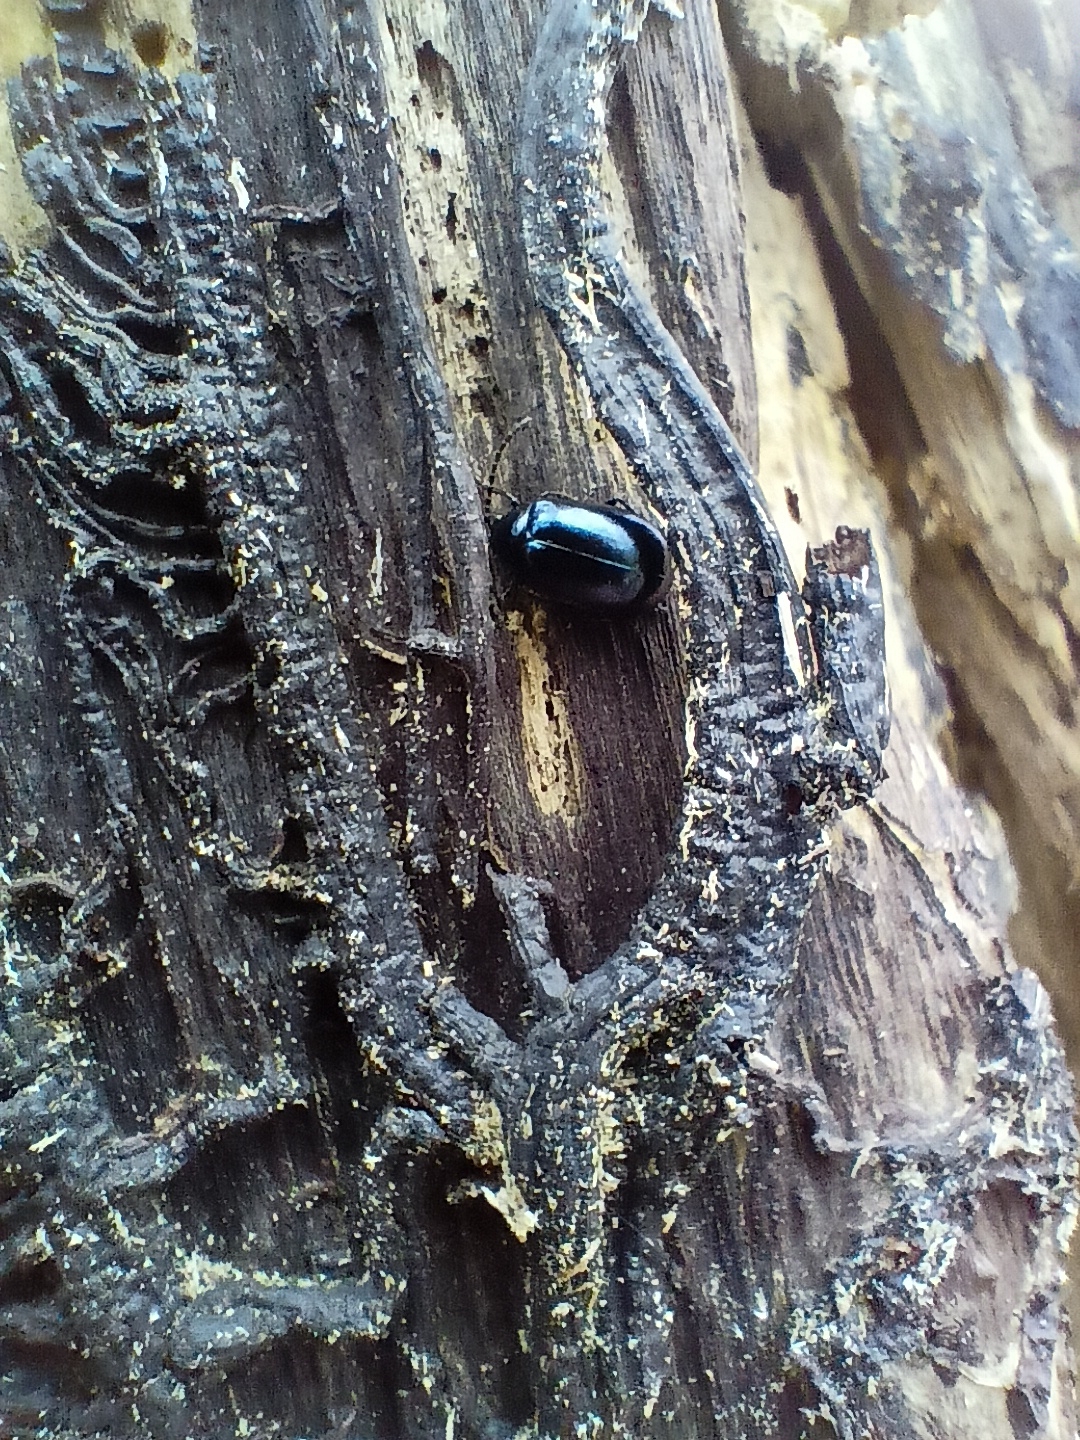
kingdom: Animalia
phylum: Arthropoda
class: Insecta
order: Coleoptera
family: Chrysomelidae
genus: Agelastica
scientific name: Agelastica alni
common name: Alder leaf beetle
